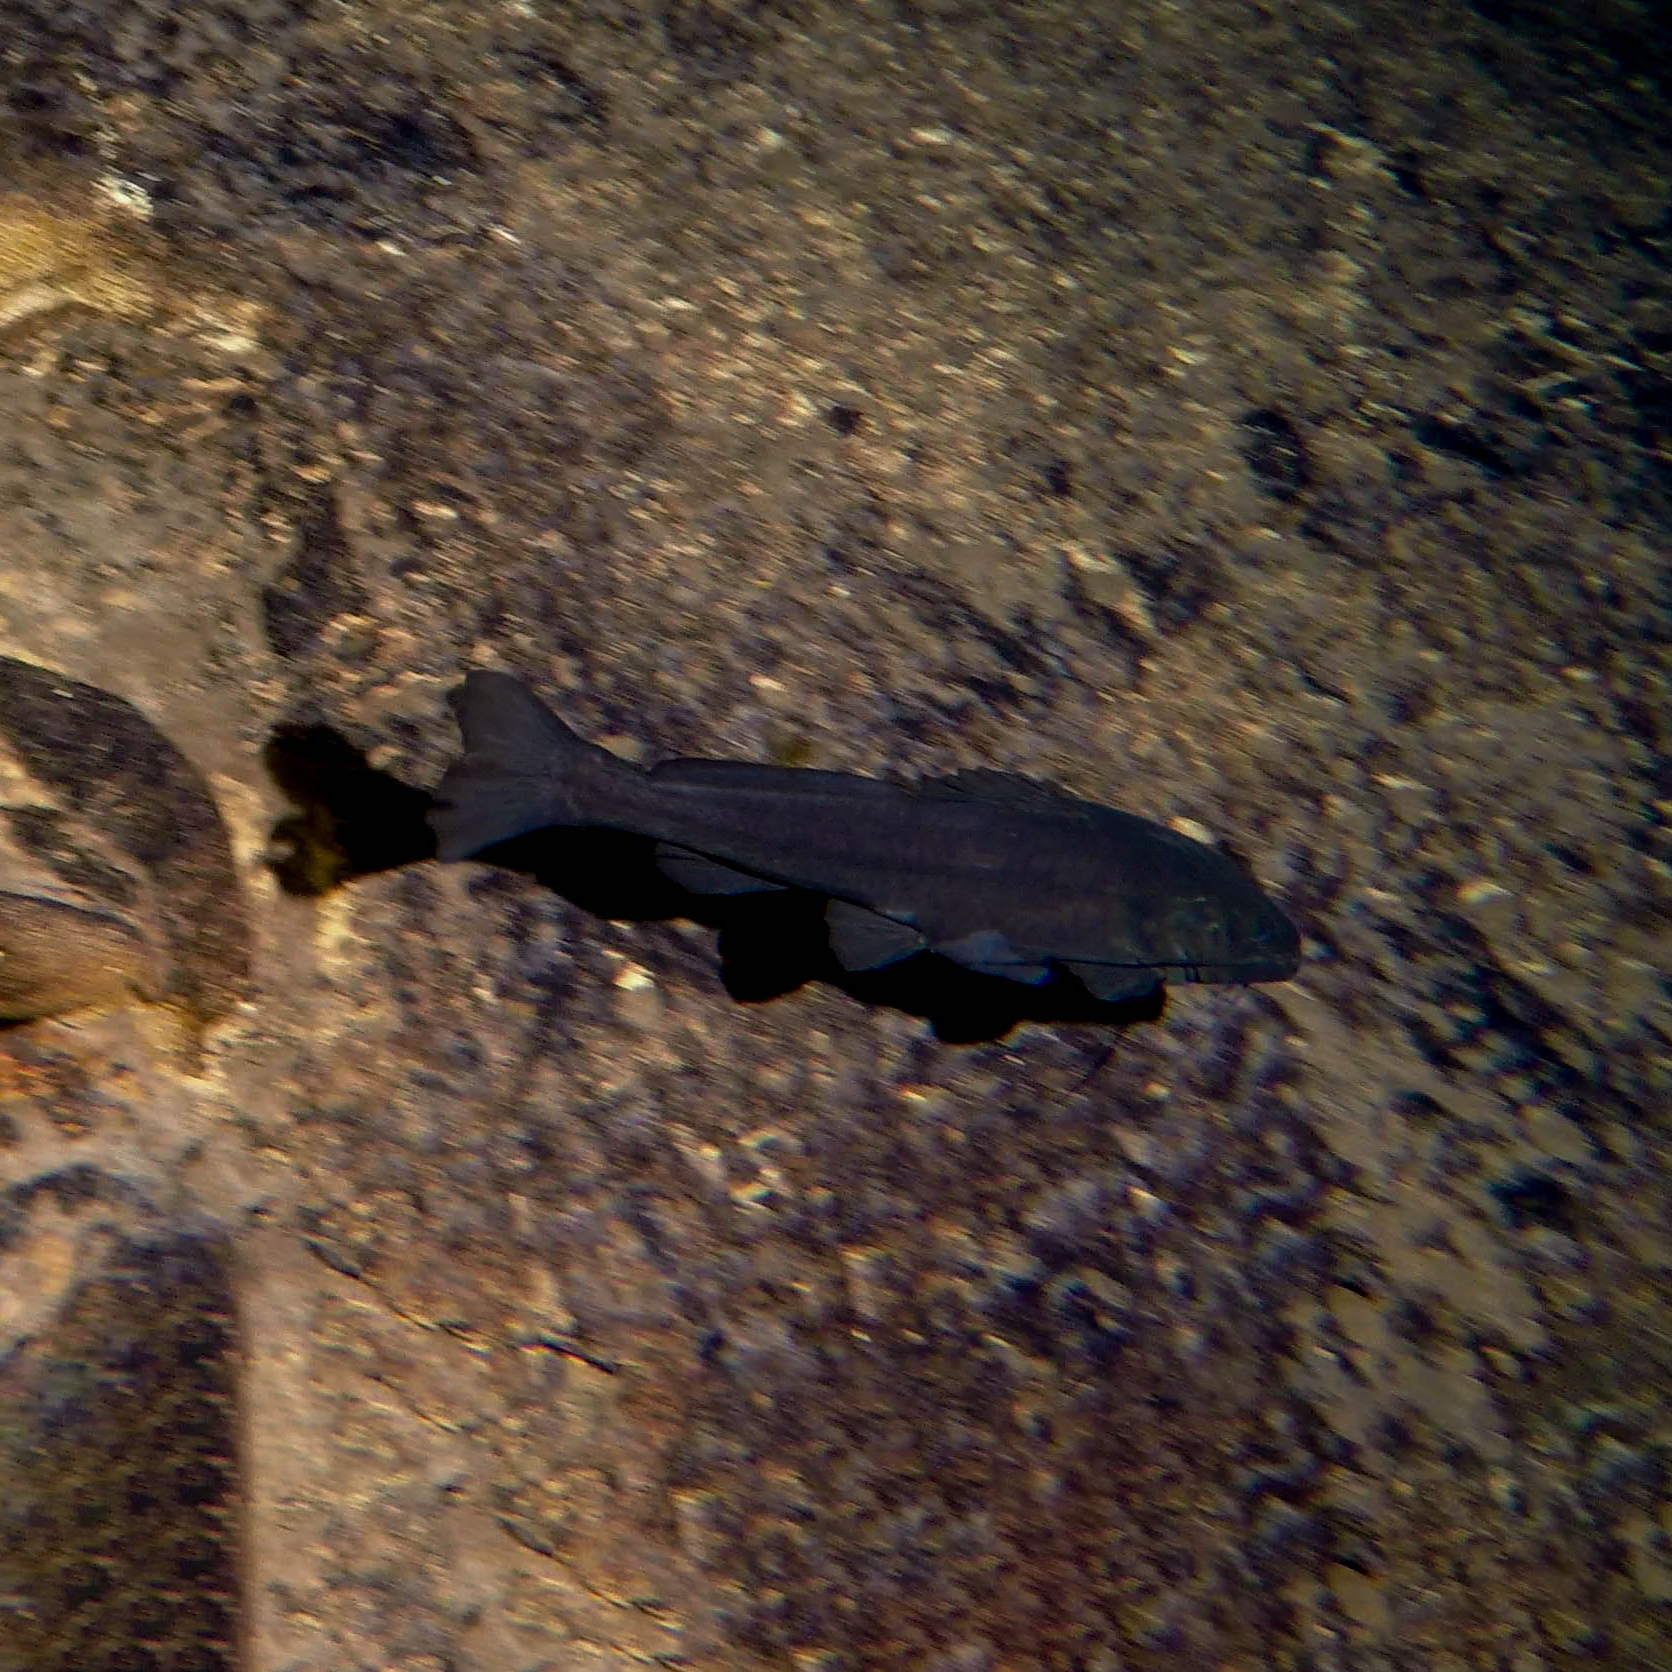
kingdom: Animalia
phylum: Chordata
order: Siluriformes
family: Heptapteridae
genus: Rhamdia
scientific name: Rhamdia guatemalensis
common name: Pale catfish
